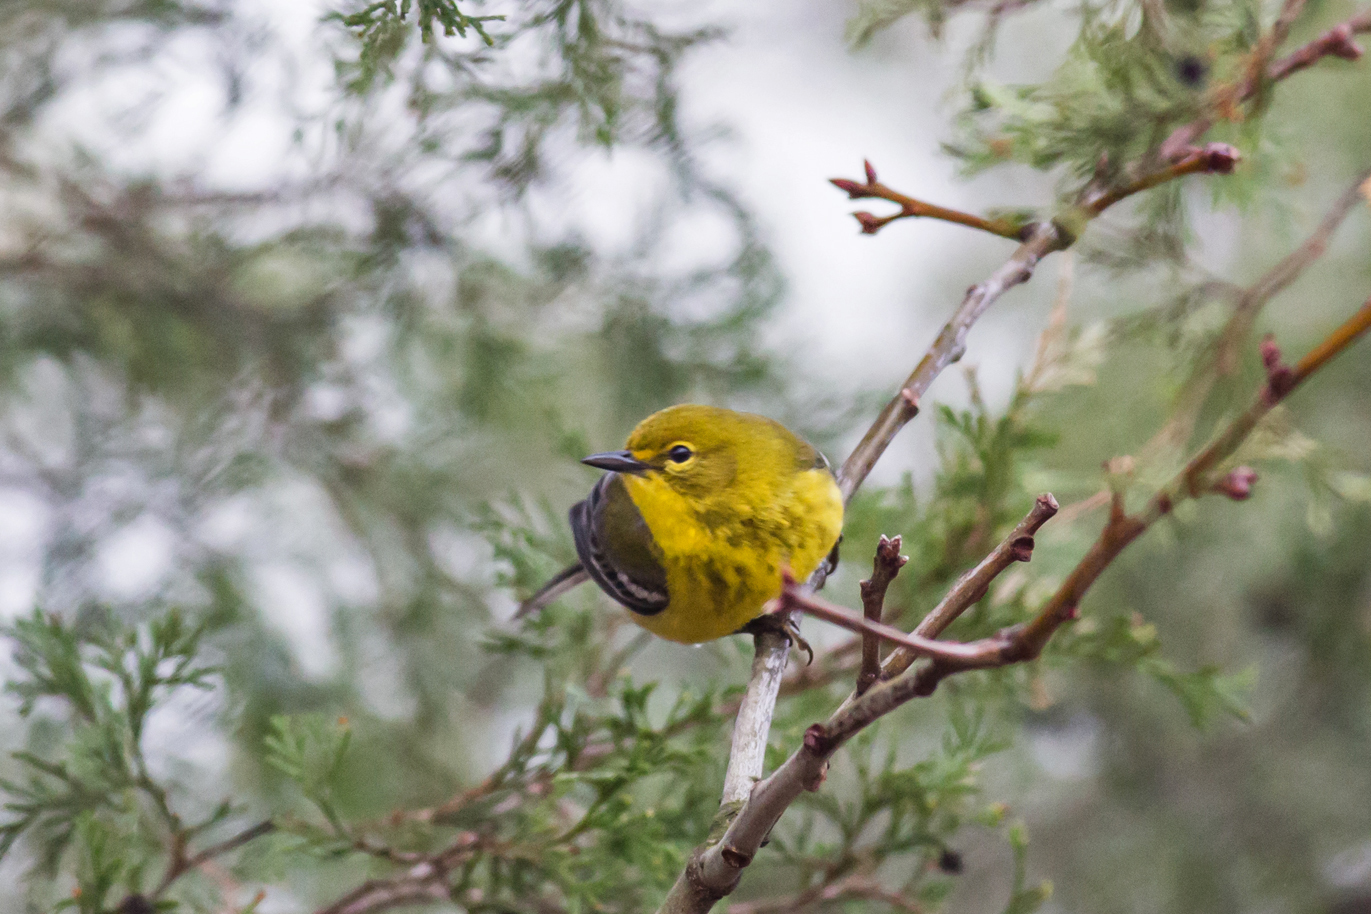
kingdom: Animalia
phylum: Chordata
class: Aves
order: Passeriformes
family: Parulidae
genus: Setophaga
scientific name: Setophaga pinus
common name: Pine warbler
